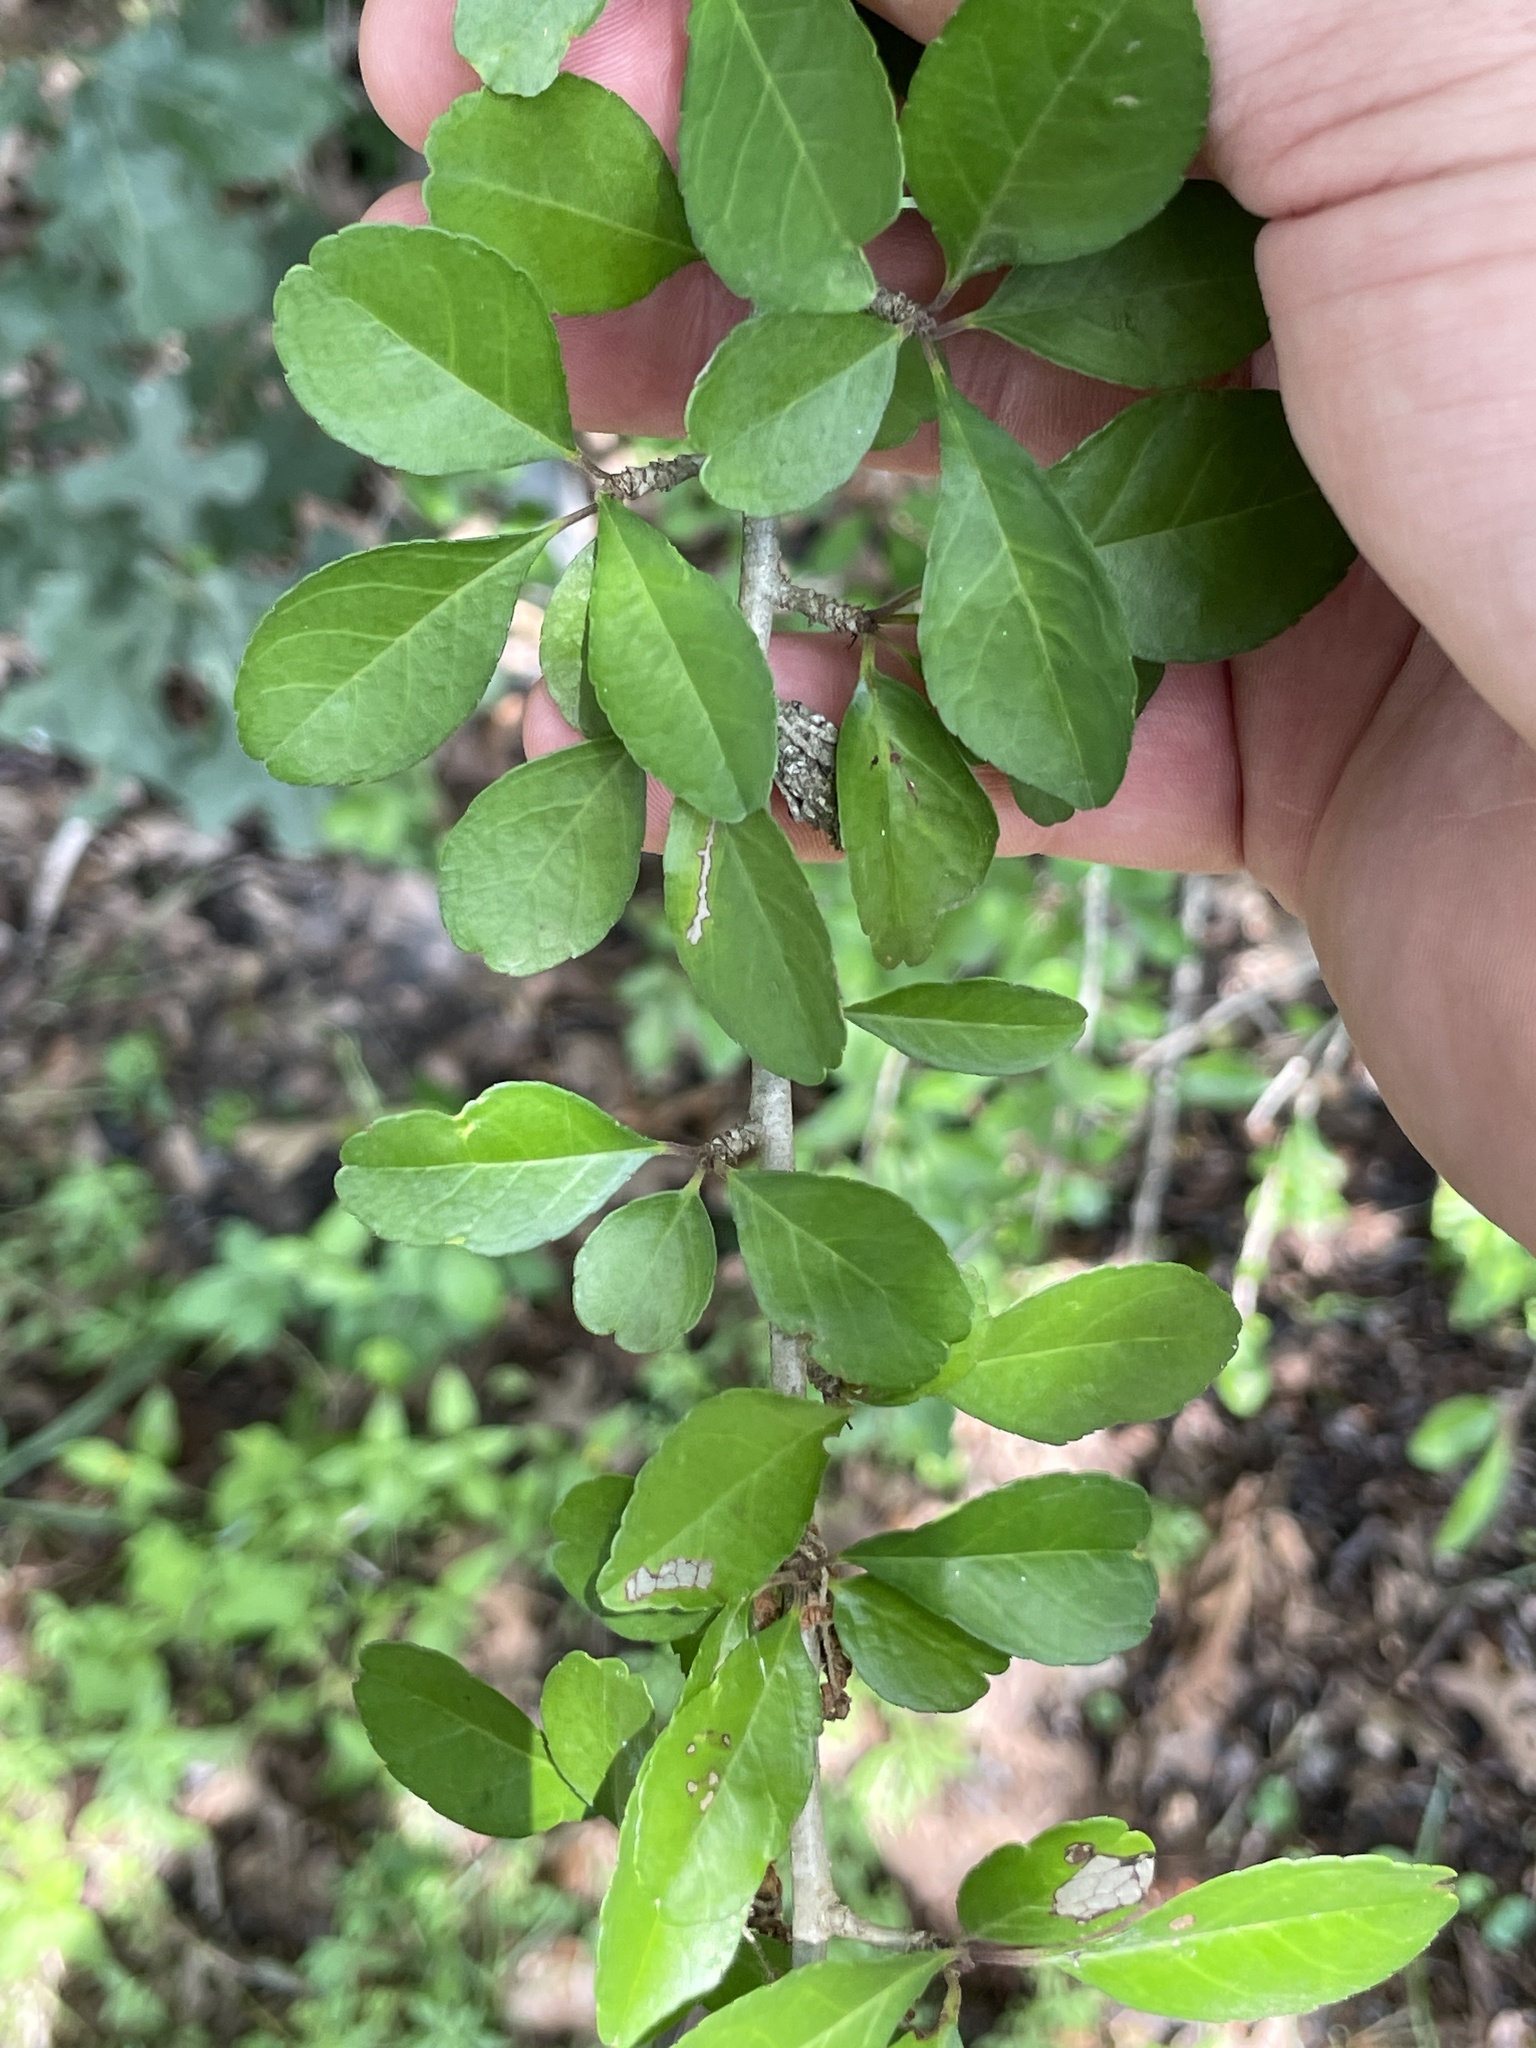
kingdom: Plantae
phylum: Tracheophyta
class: Magnoliopsida
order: Aquifoliales
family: Aquifoliaceae
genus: Ilex
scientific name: Ilex decidua
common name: Possum-haw
